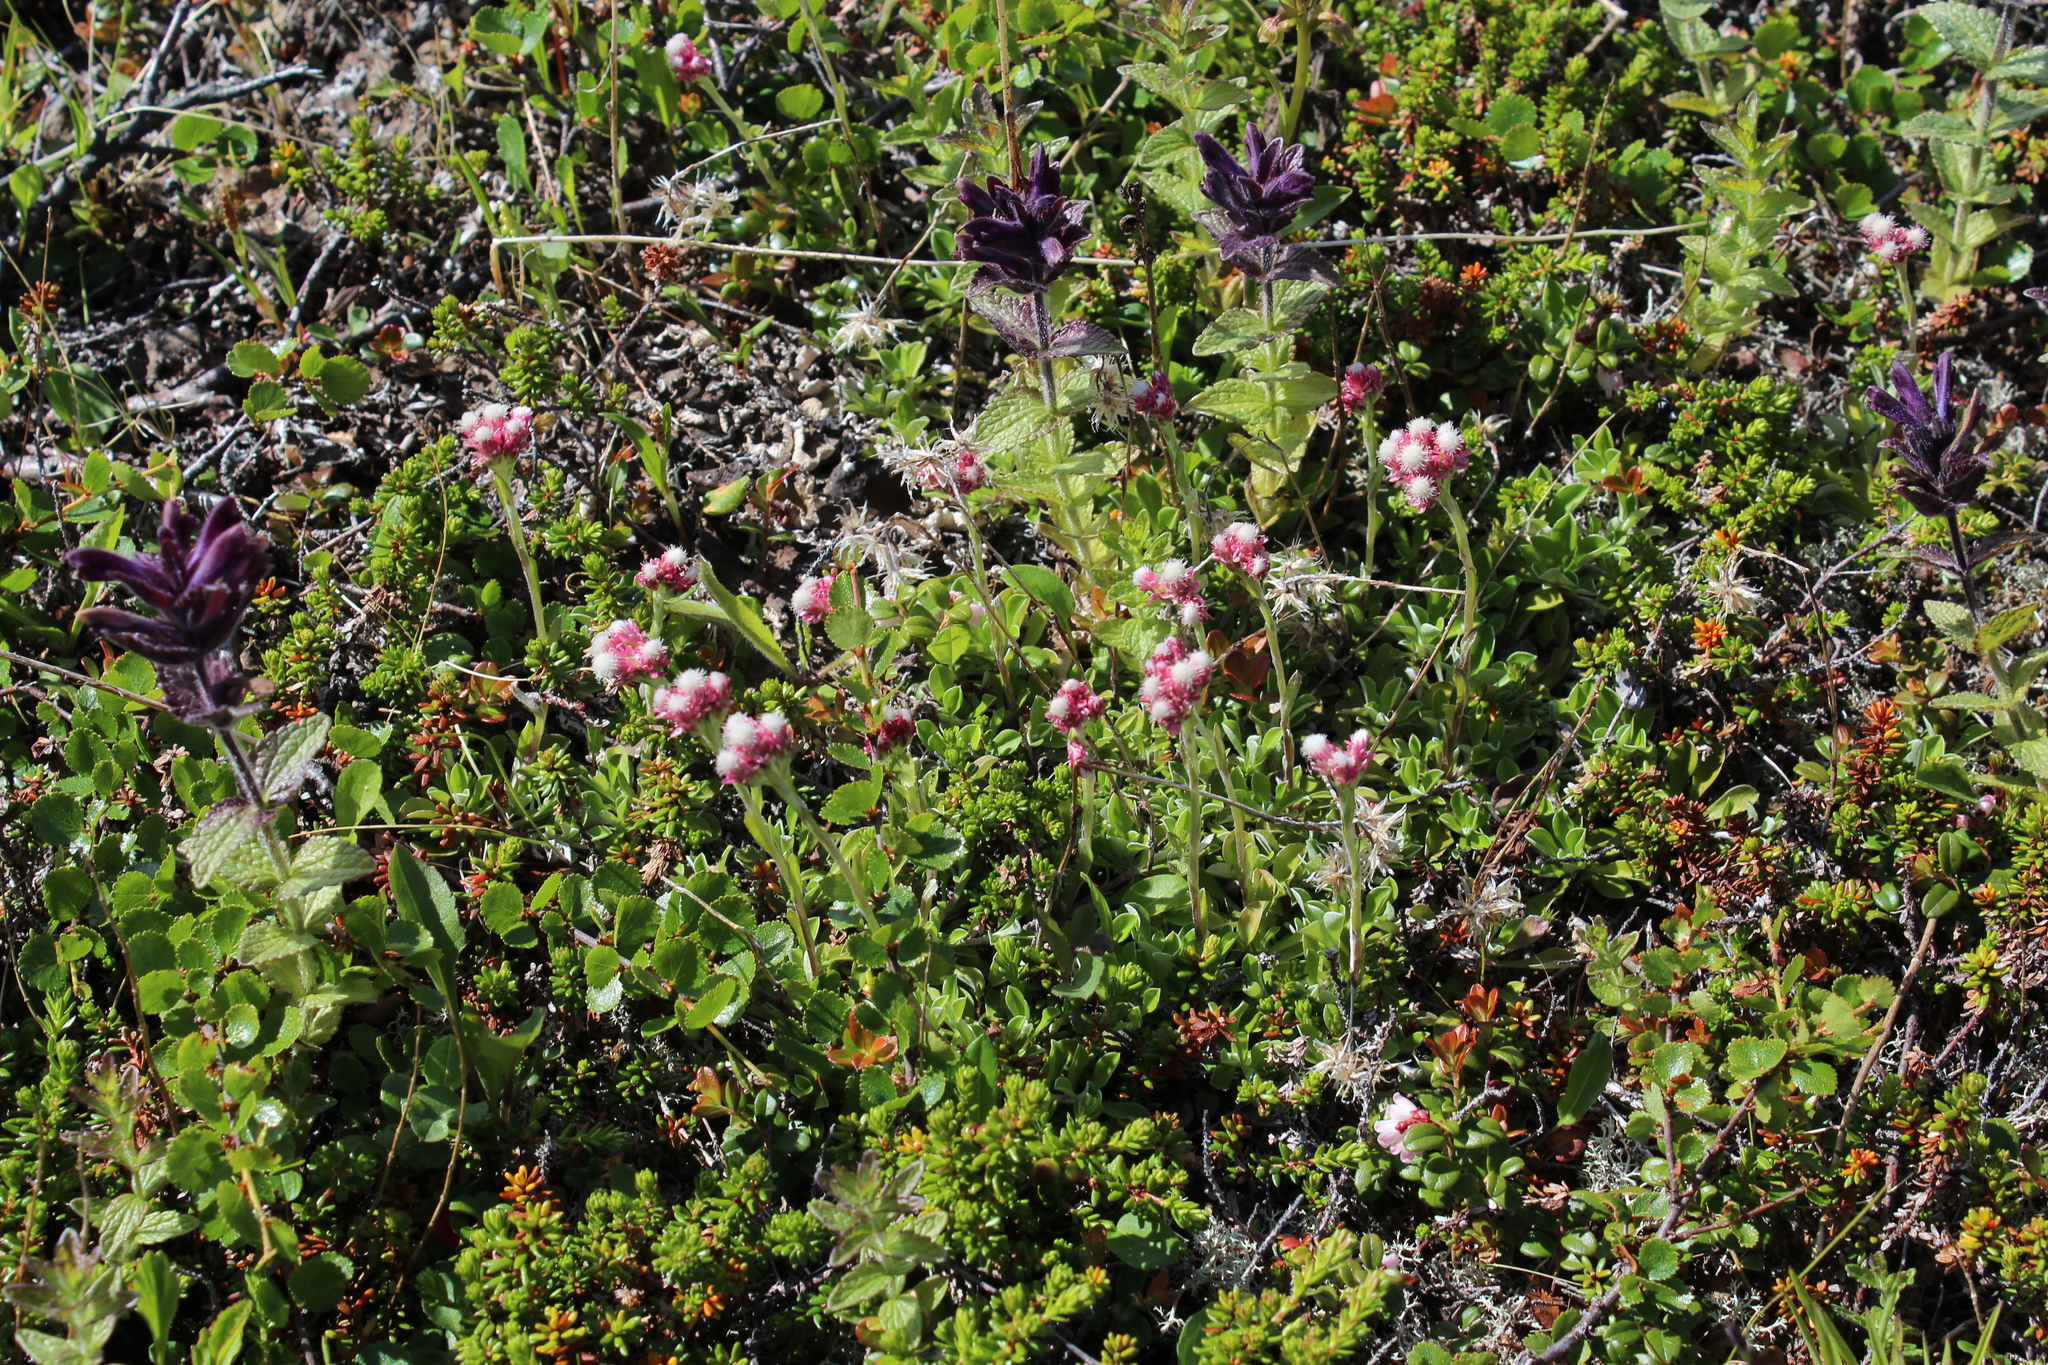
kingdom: Plantae
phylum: Tracheophyta
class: Magnoliopsida
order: Asterales
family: Asteraceae
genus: Antennaria
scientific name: Antennaria dioica
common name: Mountain everlasting
